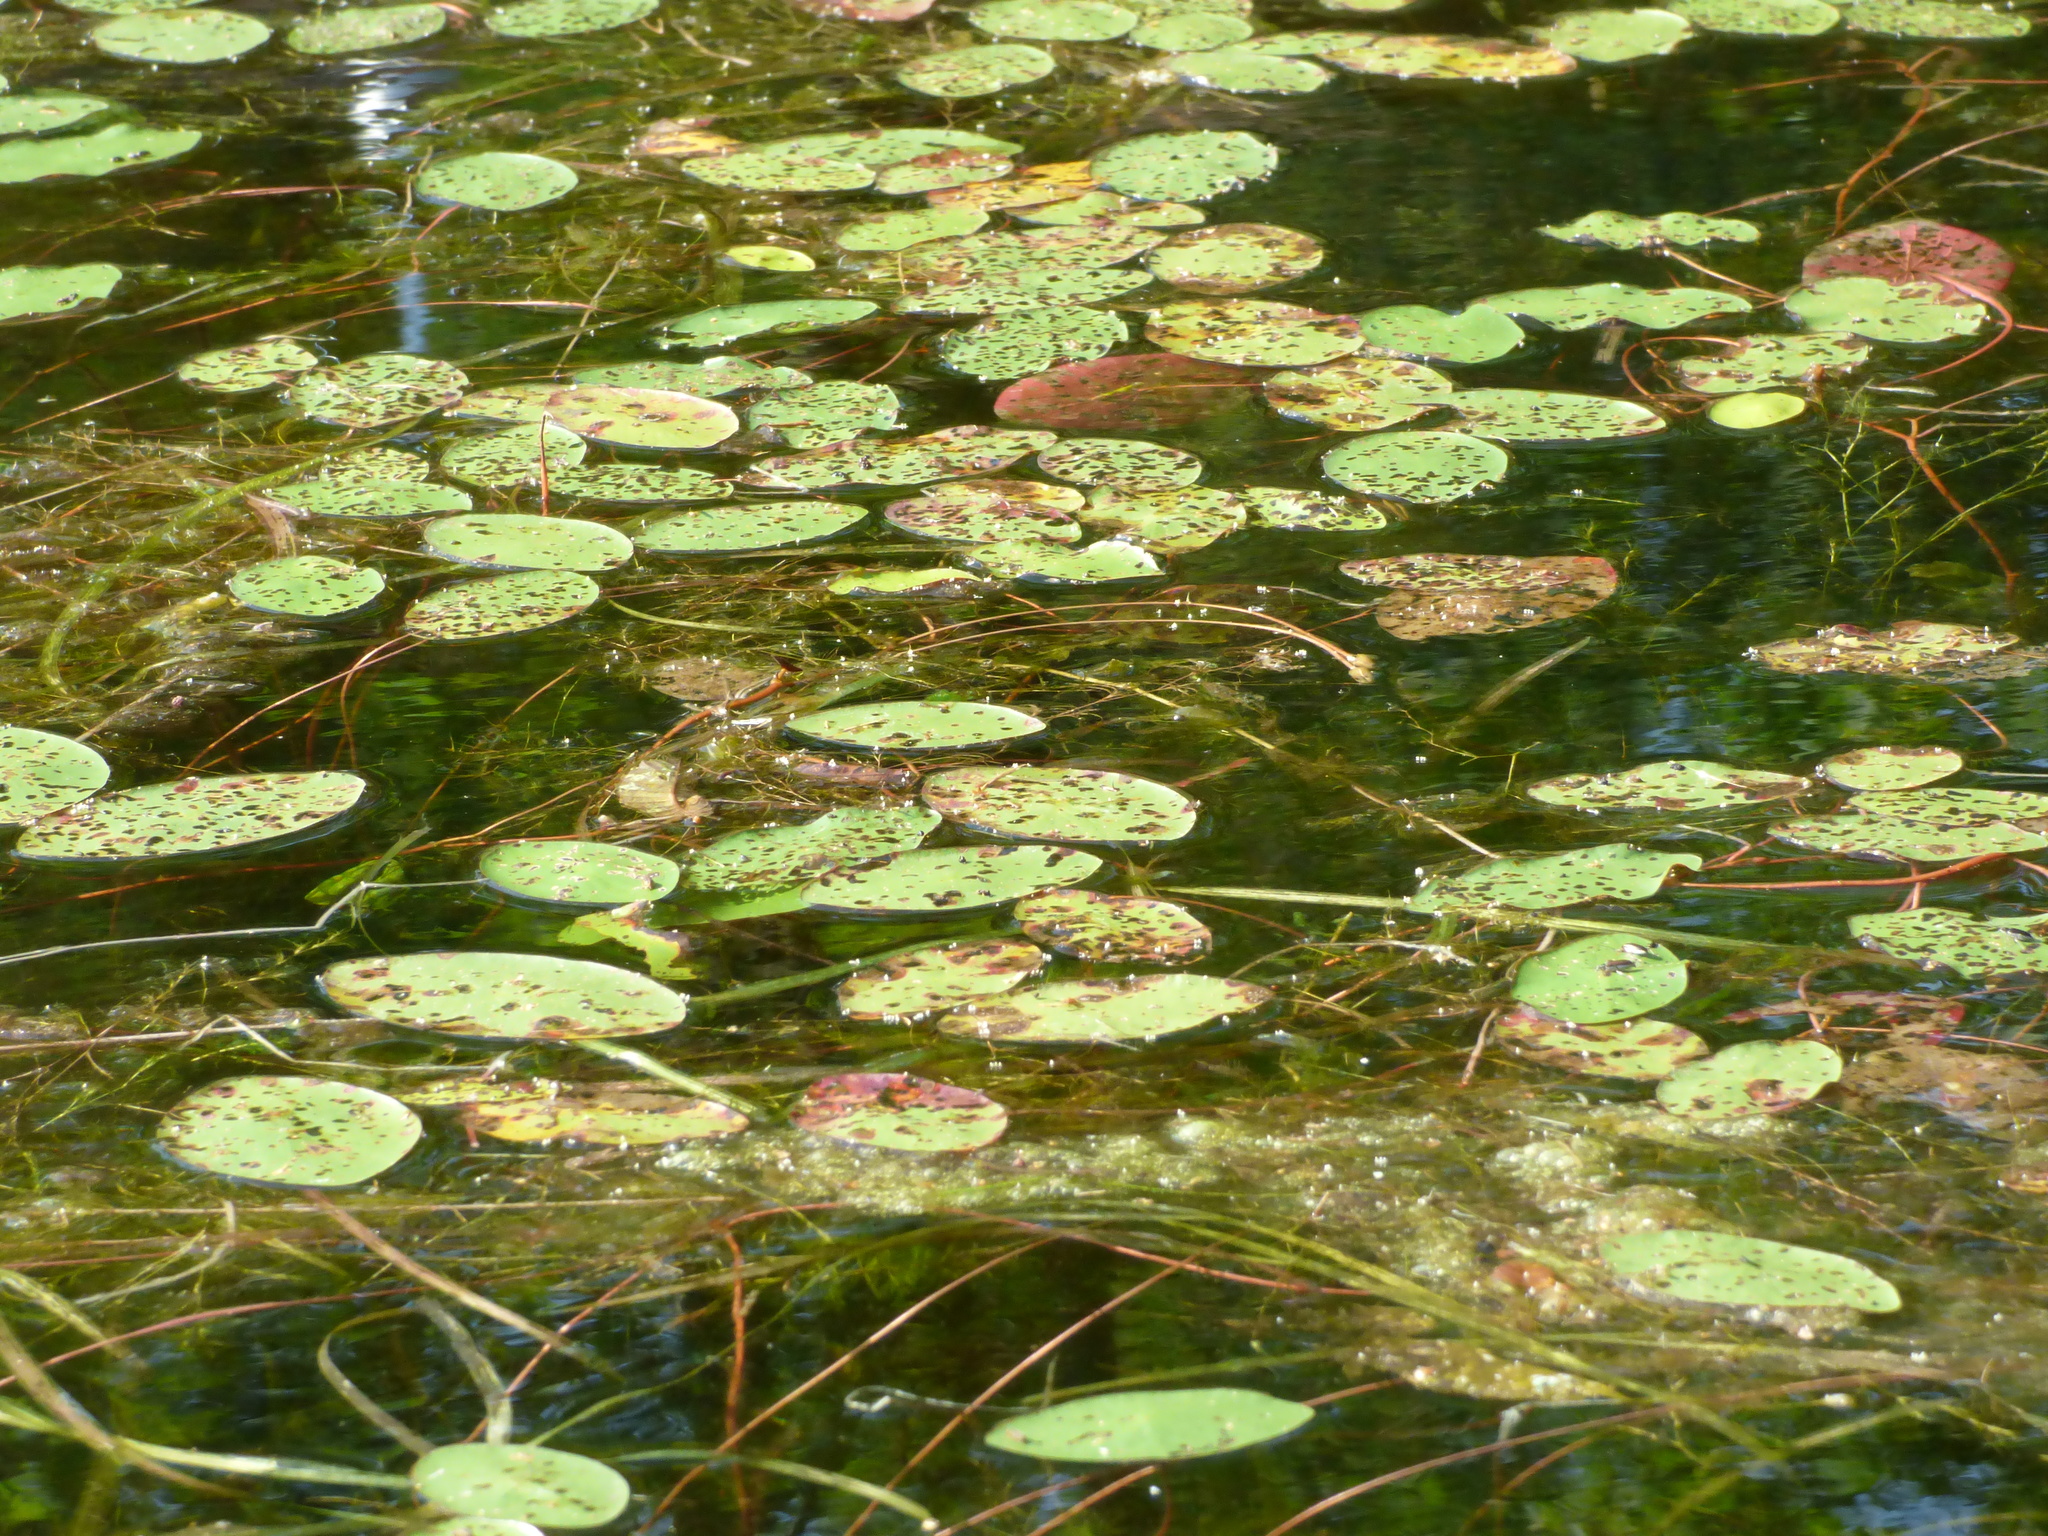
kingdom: Plantae
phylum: Tracheophyta
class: Magnoliopsida
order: Nymphaeales
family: Cabombaceae
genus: Brasenia
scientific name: Brasenia schreberi
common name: Water-shield
